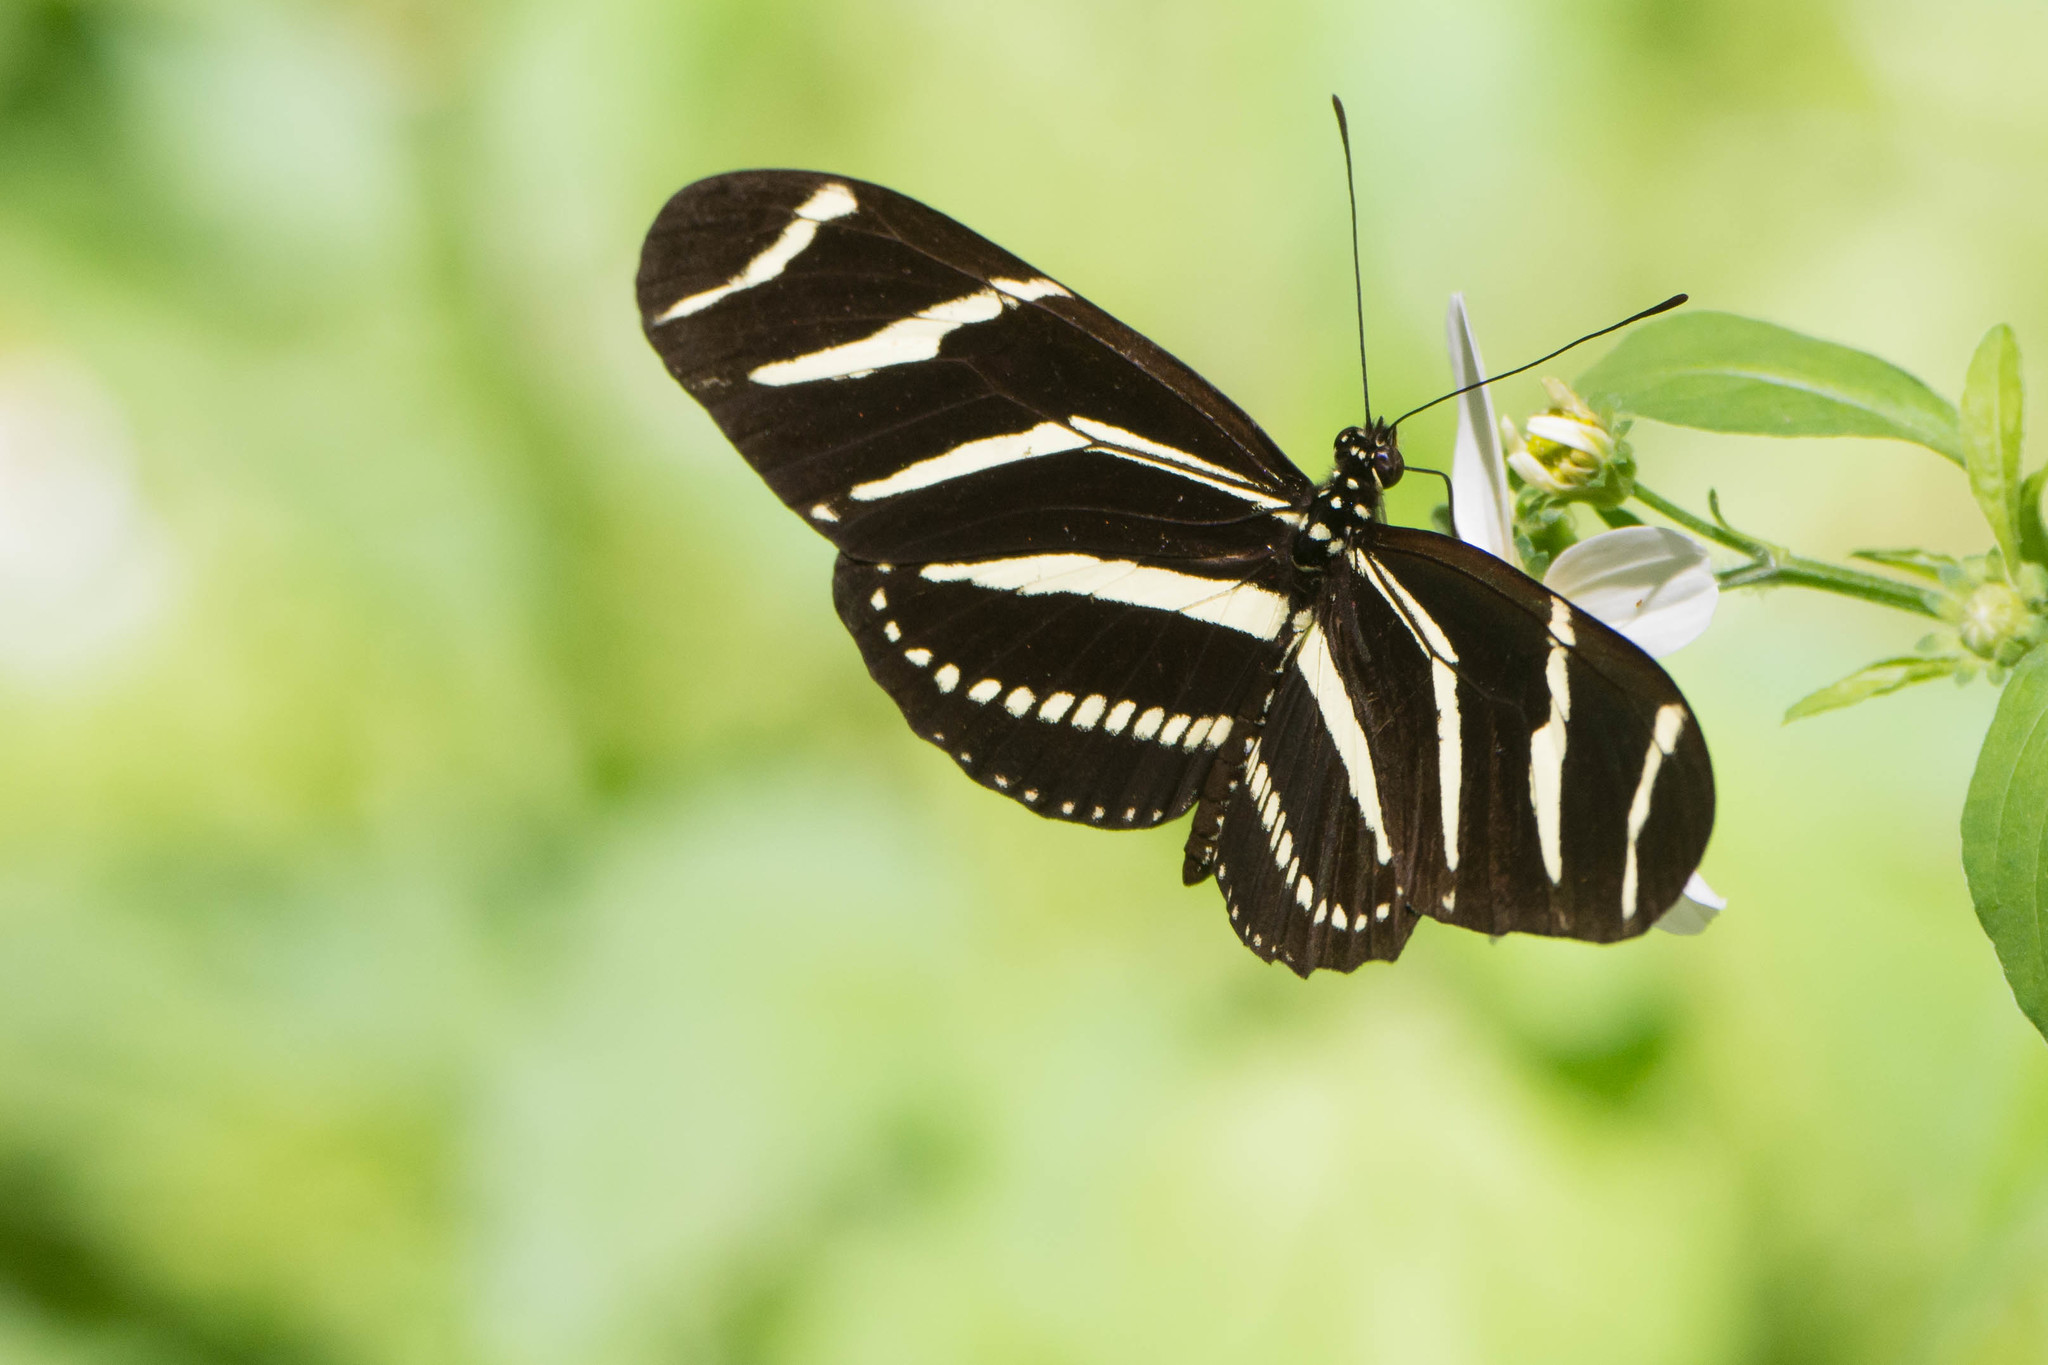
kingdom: Animalia
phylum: Arthropoda
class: Insecta
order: Lepidoptera
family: Nymphalidae
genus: Heliconius
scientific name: Heliconius charithonia
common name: Zebra long wing
